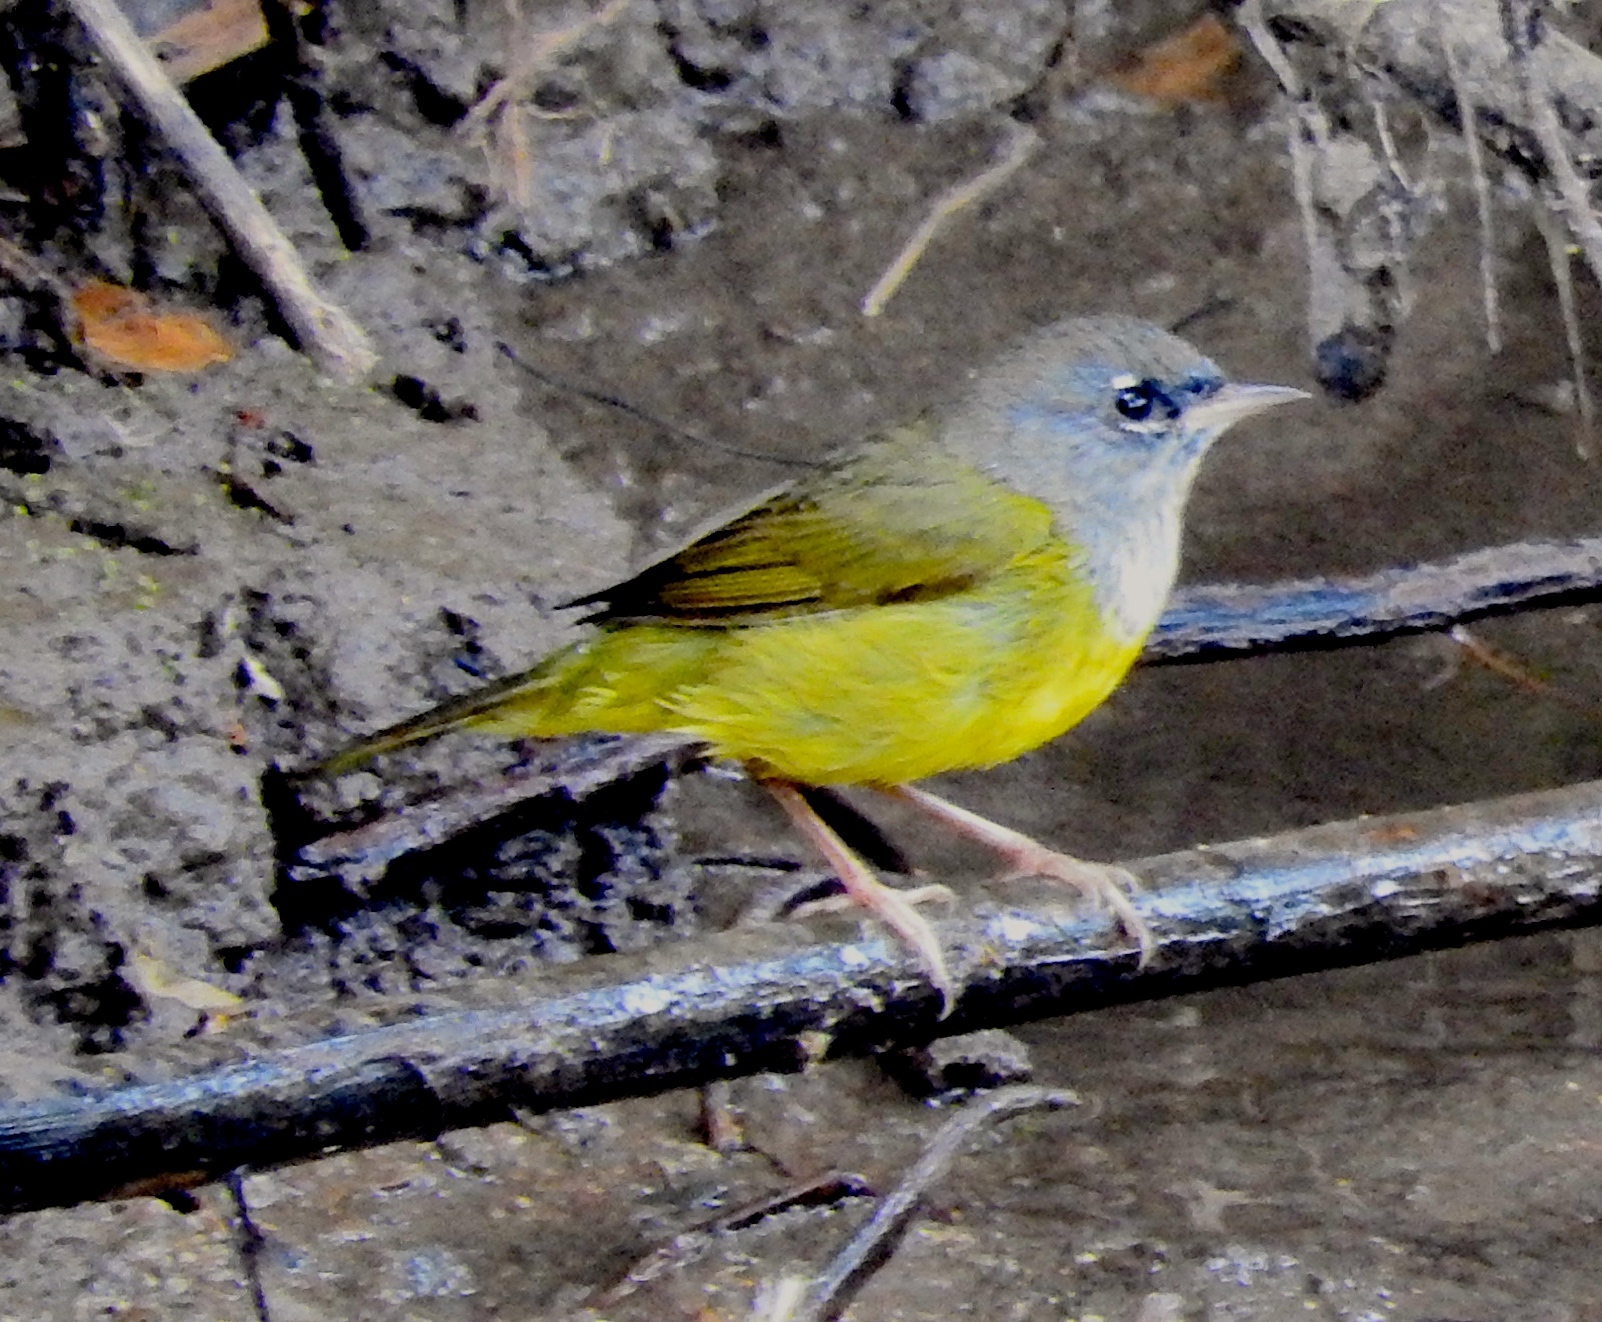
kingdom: Animalia
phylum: Chordata
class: Aves
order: Passeriformes
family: Parulidae
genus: Geothlypis
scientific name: Geothlypis tolmiei
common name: Macgillivray's warbler
